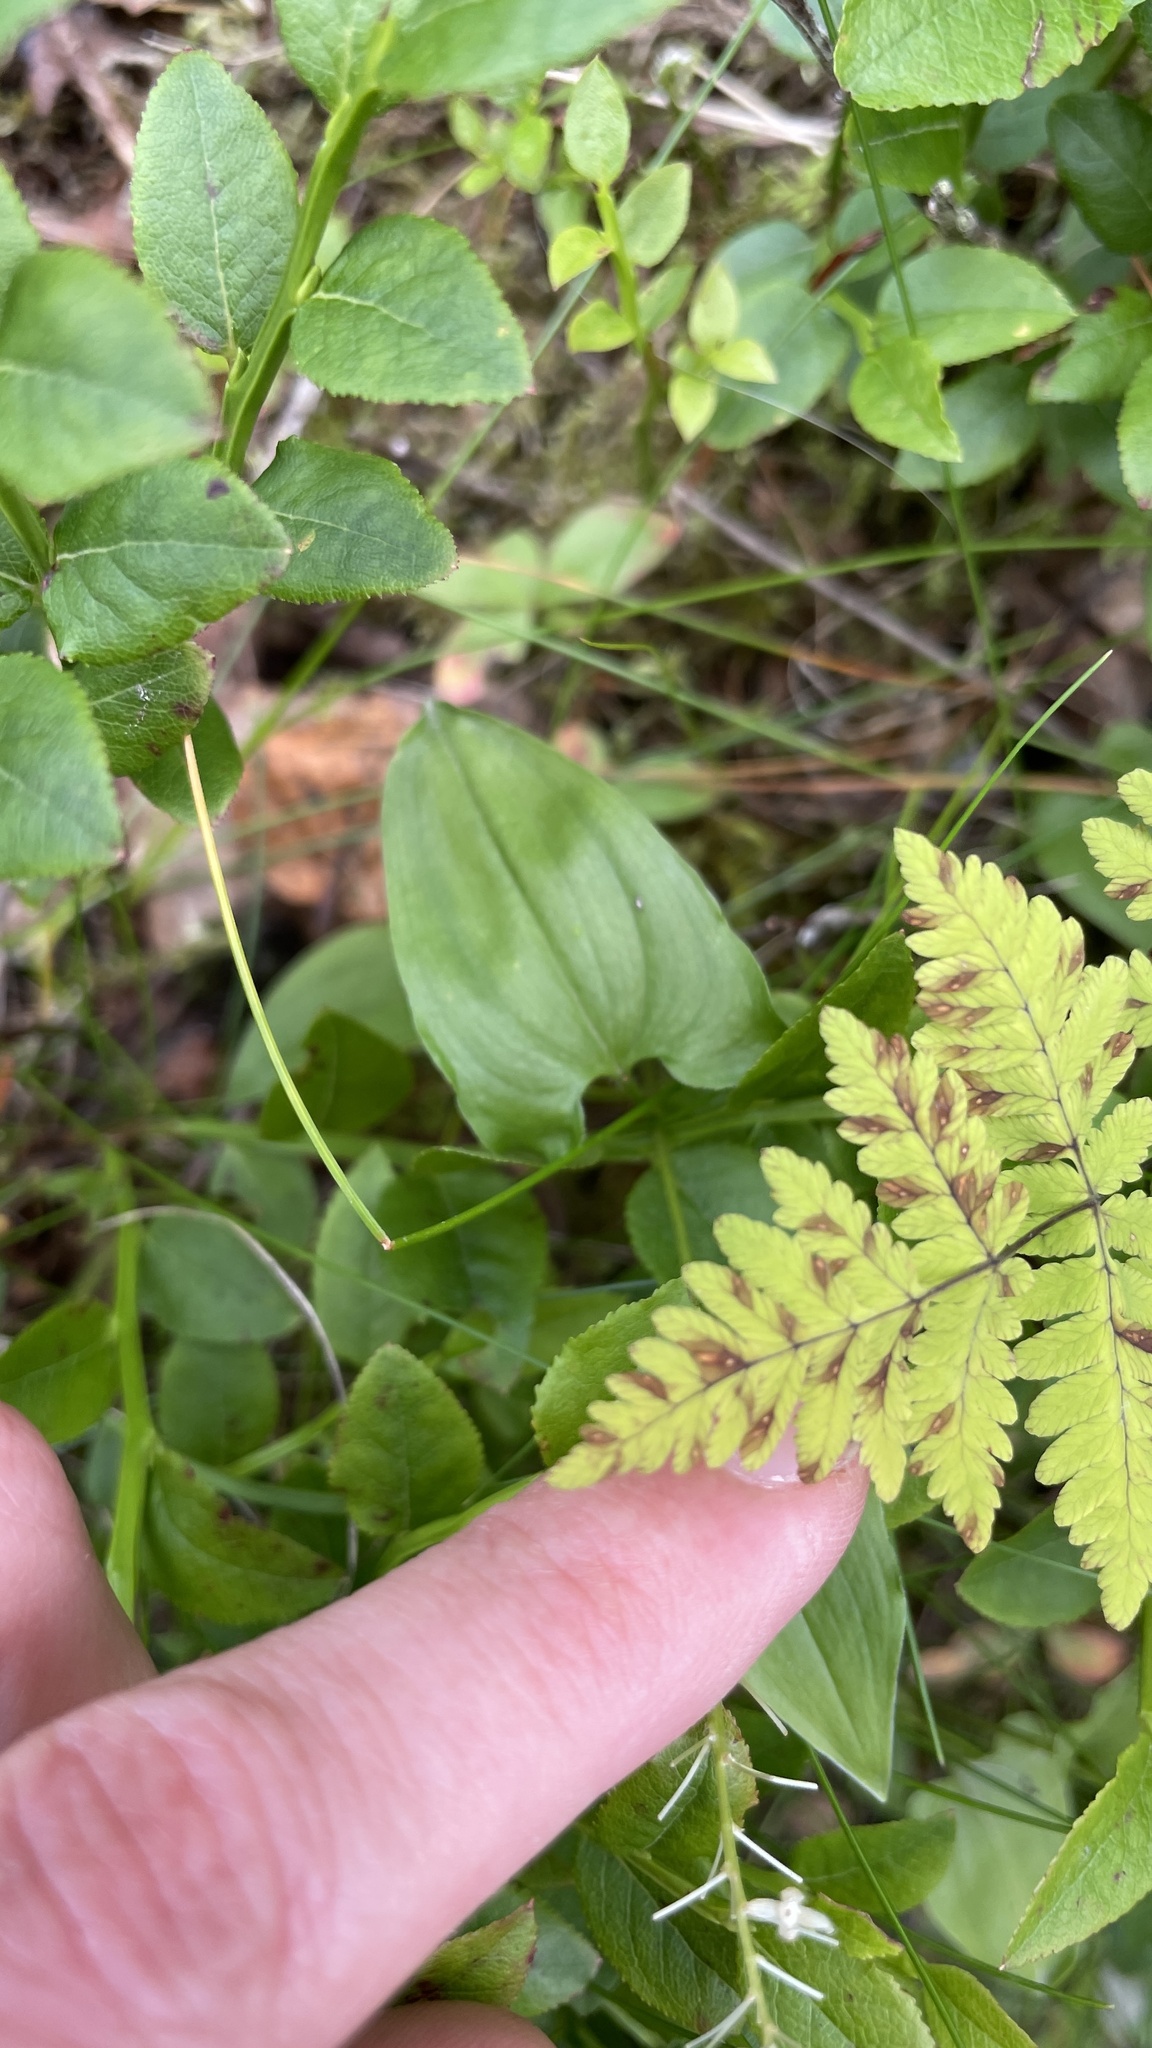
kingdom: Plantae
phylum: Tracheophyta
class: Liliopsida
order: Asparagales
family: Asparagaceae
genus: Maianthemum
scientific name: Maianthemum bifolium
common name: May lily
